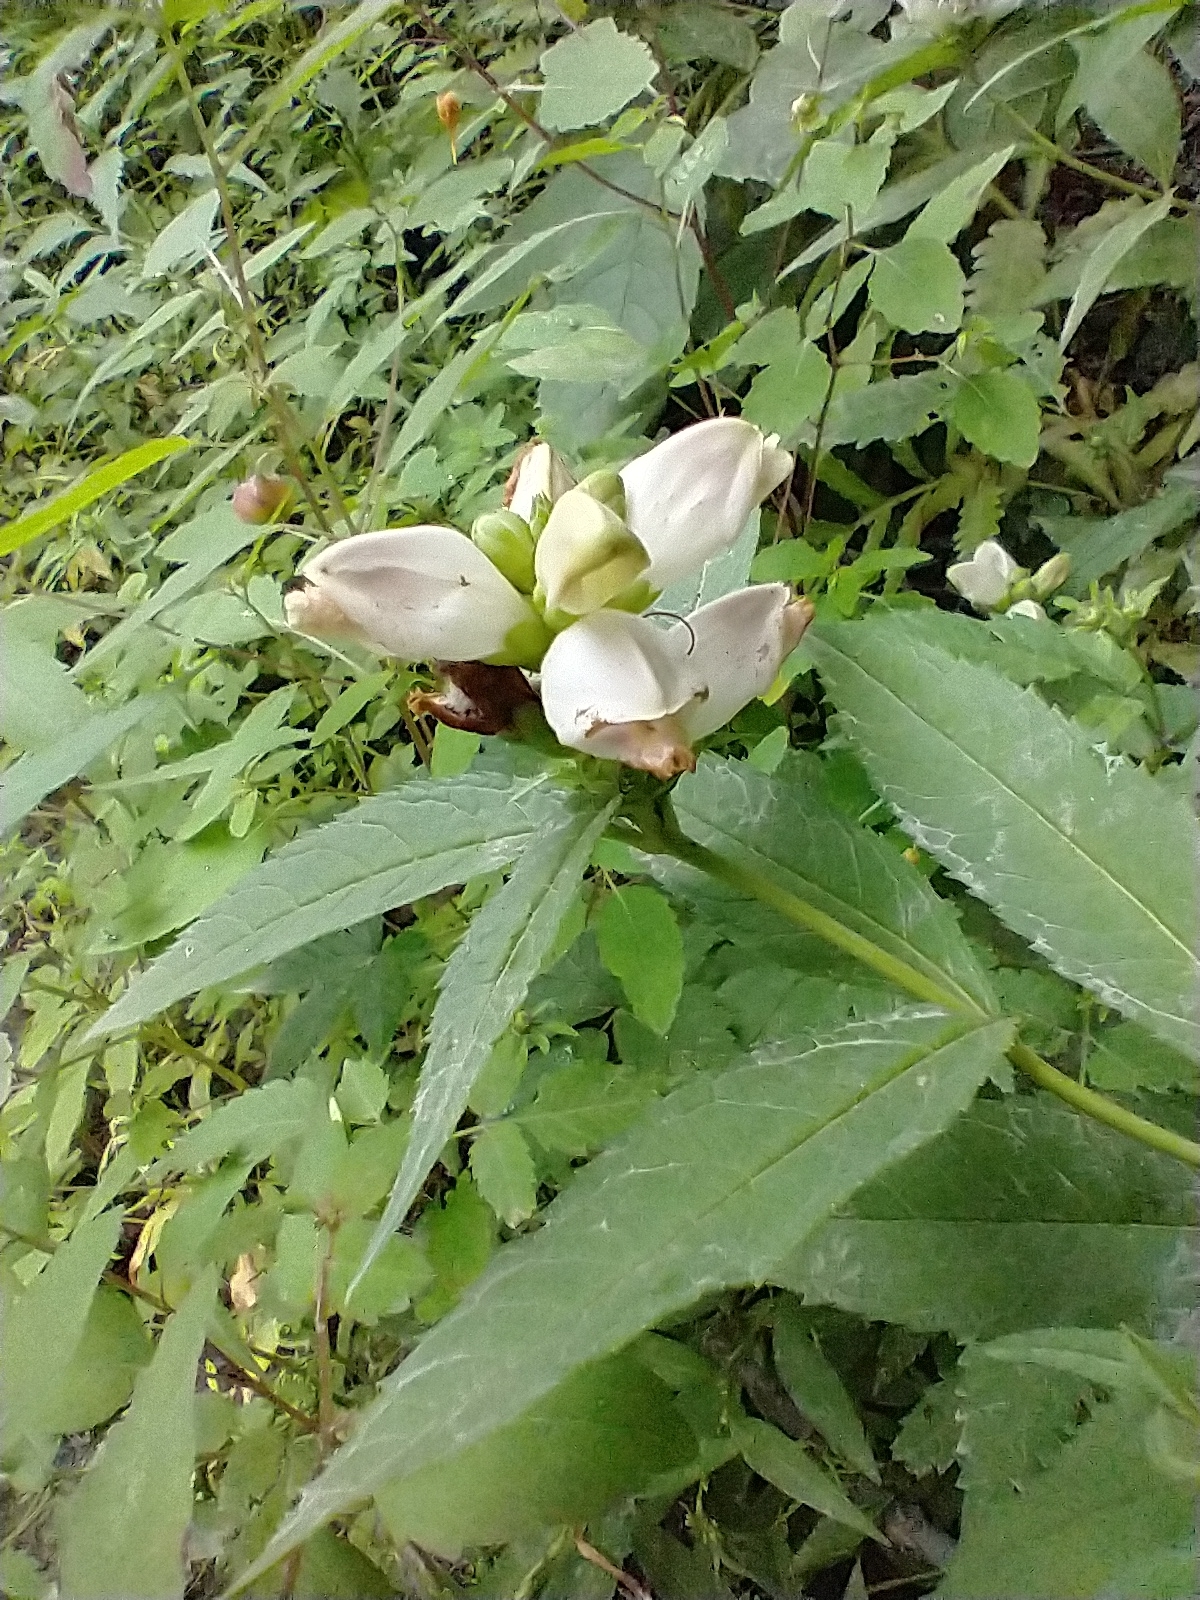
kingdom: Plantae
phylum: Tracheophyta
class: Magnoliopsida
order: Lamiales
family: Plantaginaceae
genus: Chelone
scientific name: Chelone glabra
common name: Snakehead
